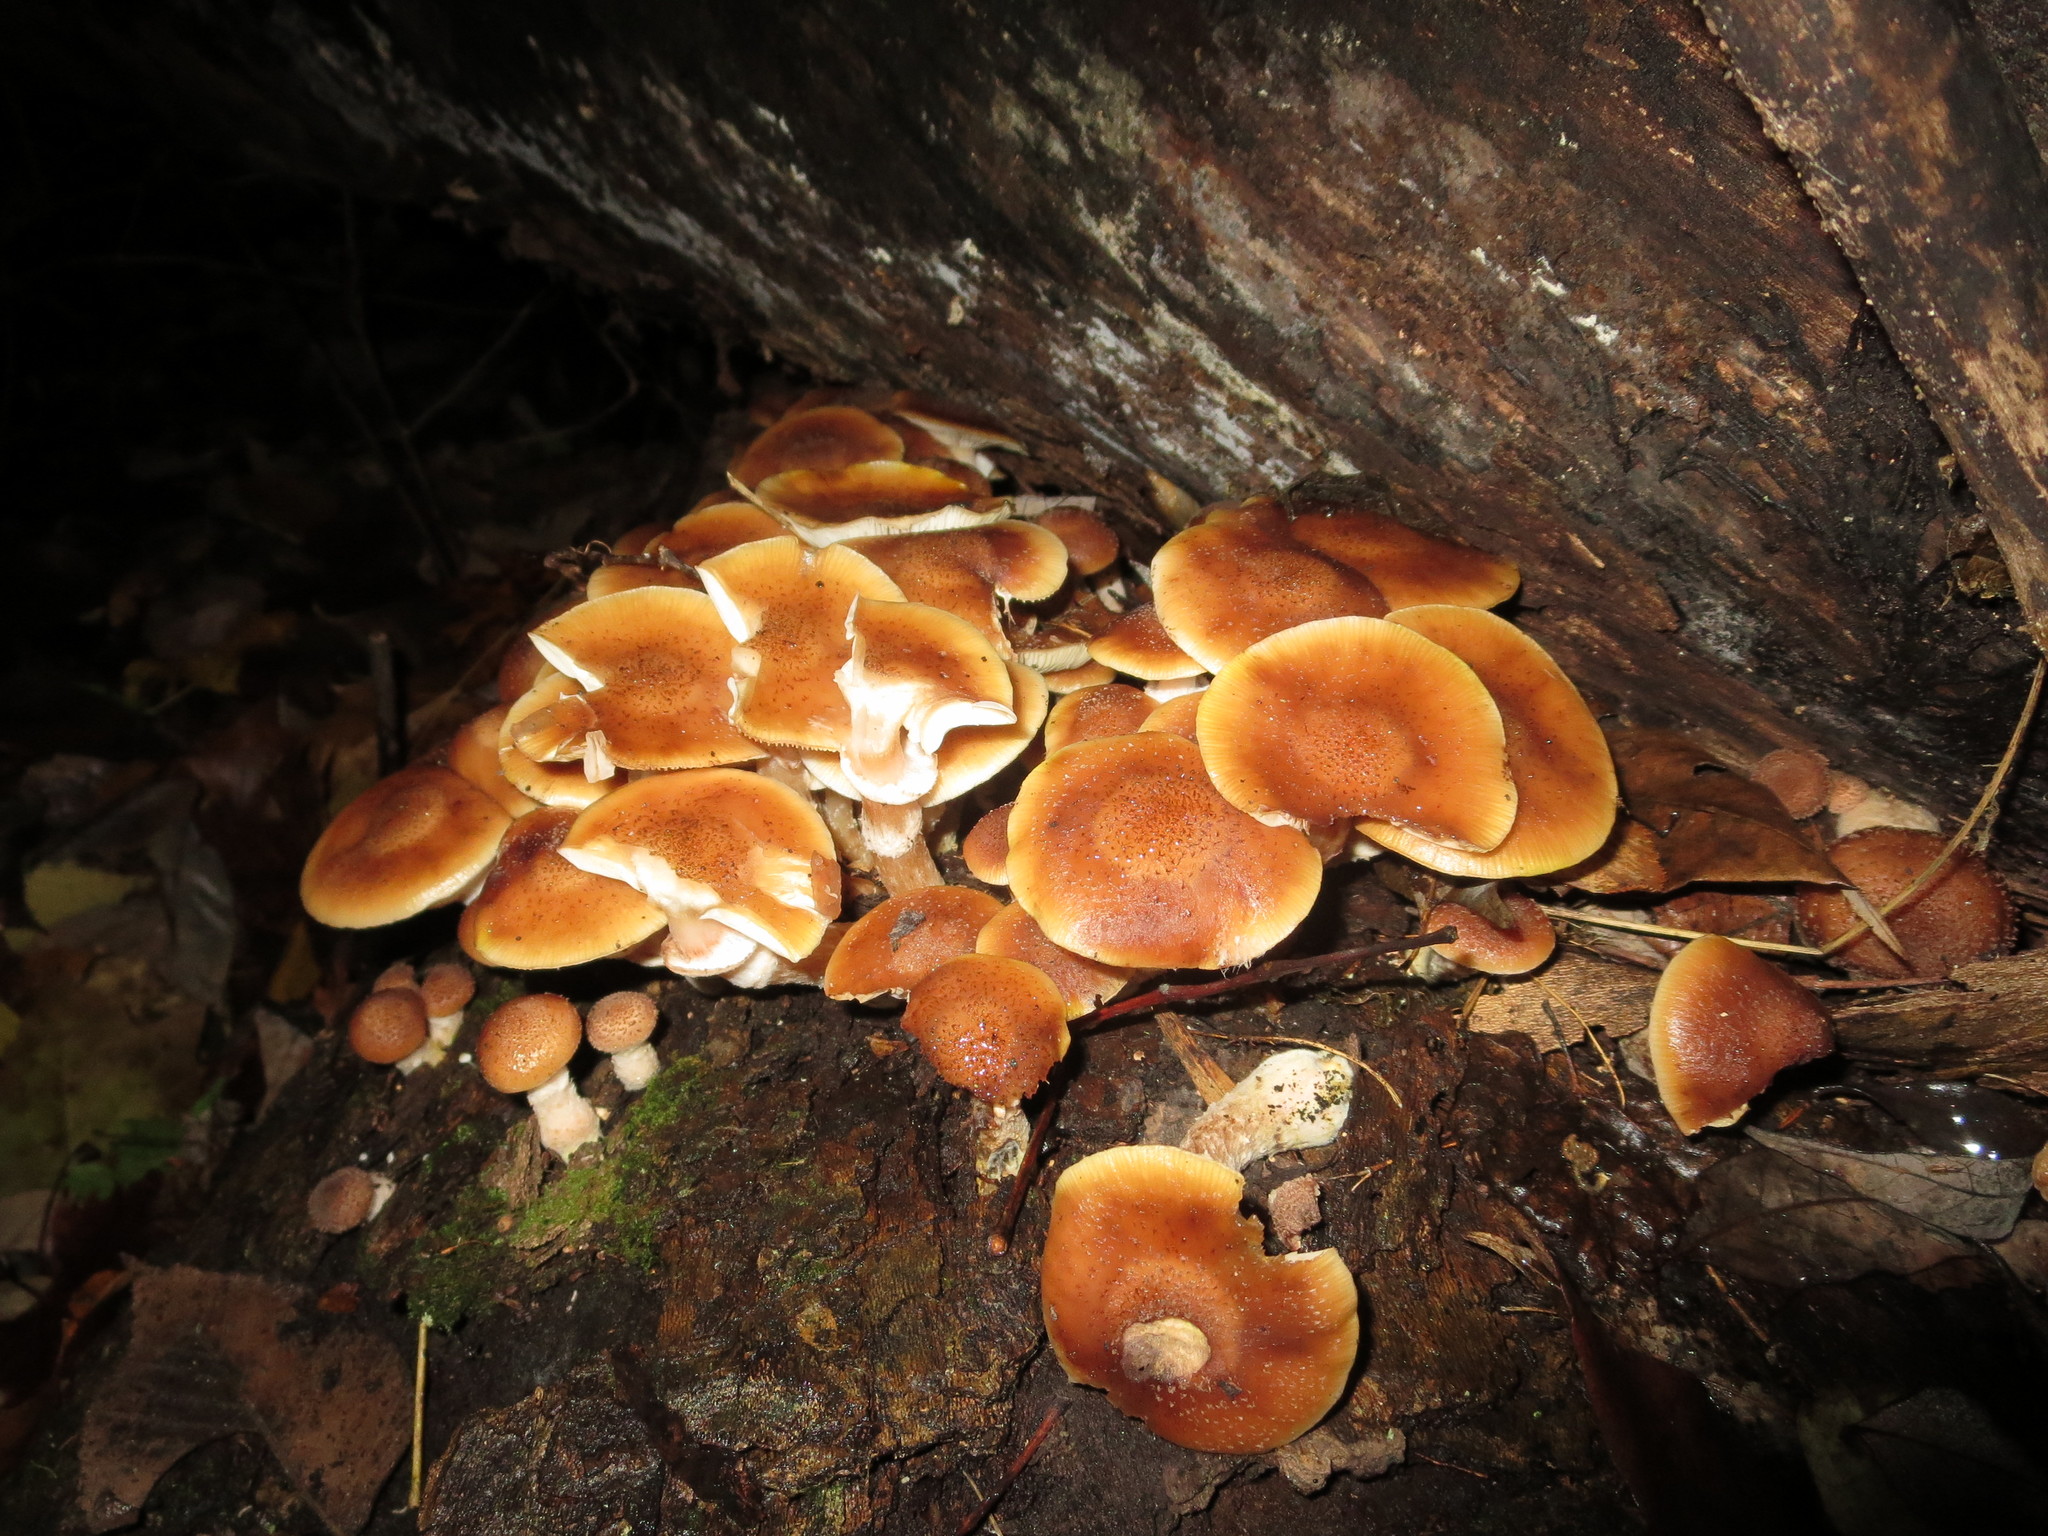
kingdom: Fungi
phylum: Basidiomycota
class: Agaricomycetes
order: Agaricales
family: Physalacriaceae
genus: Armillaria
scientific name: Armillaria gallica
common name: Bulbous honey fungus
